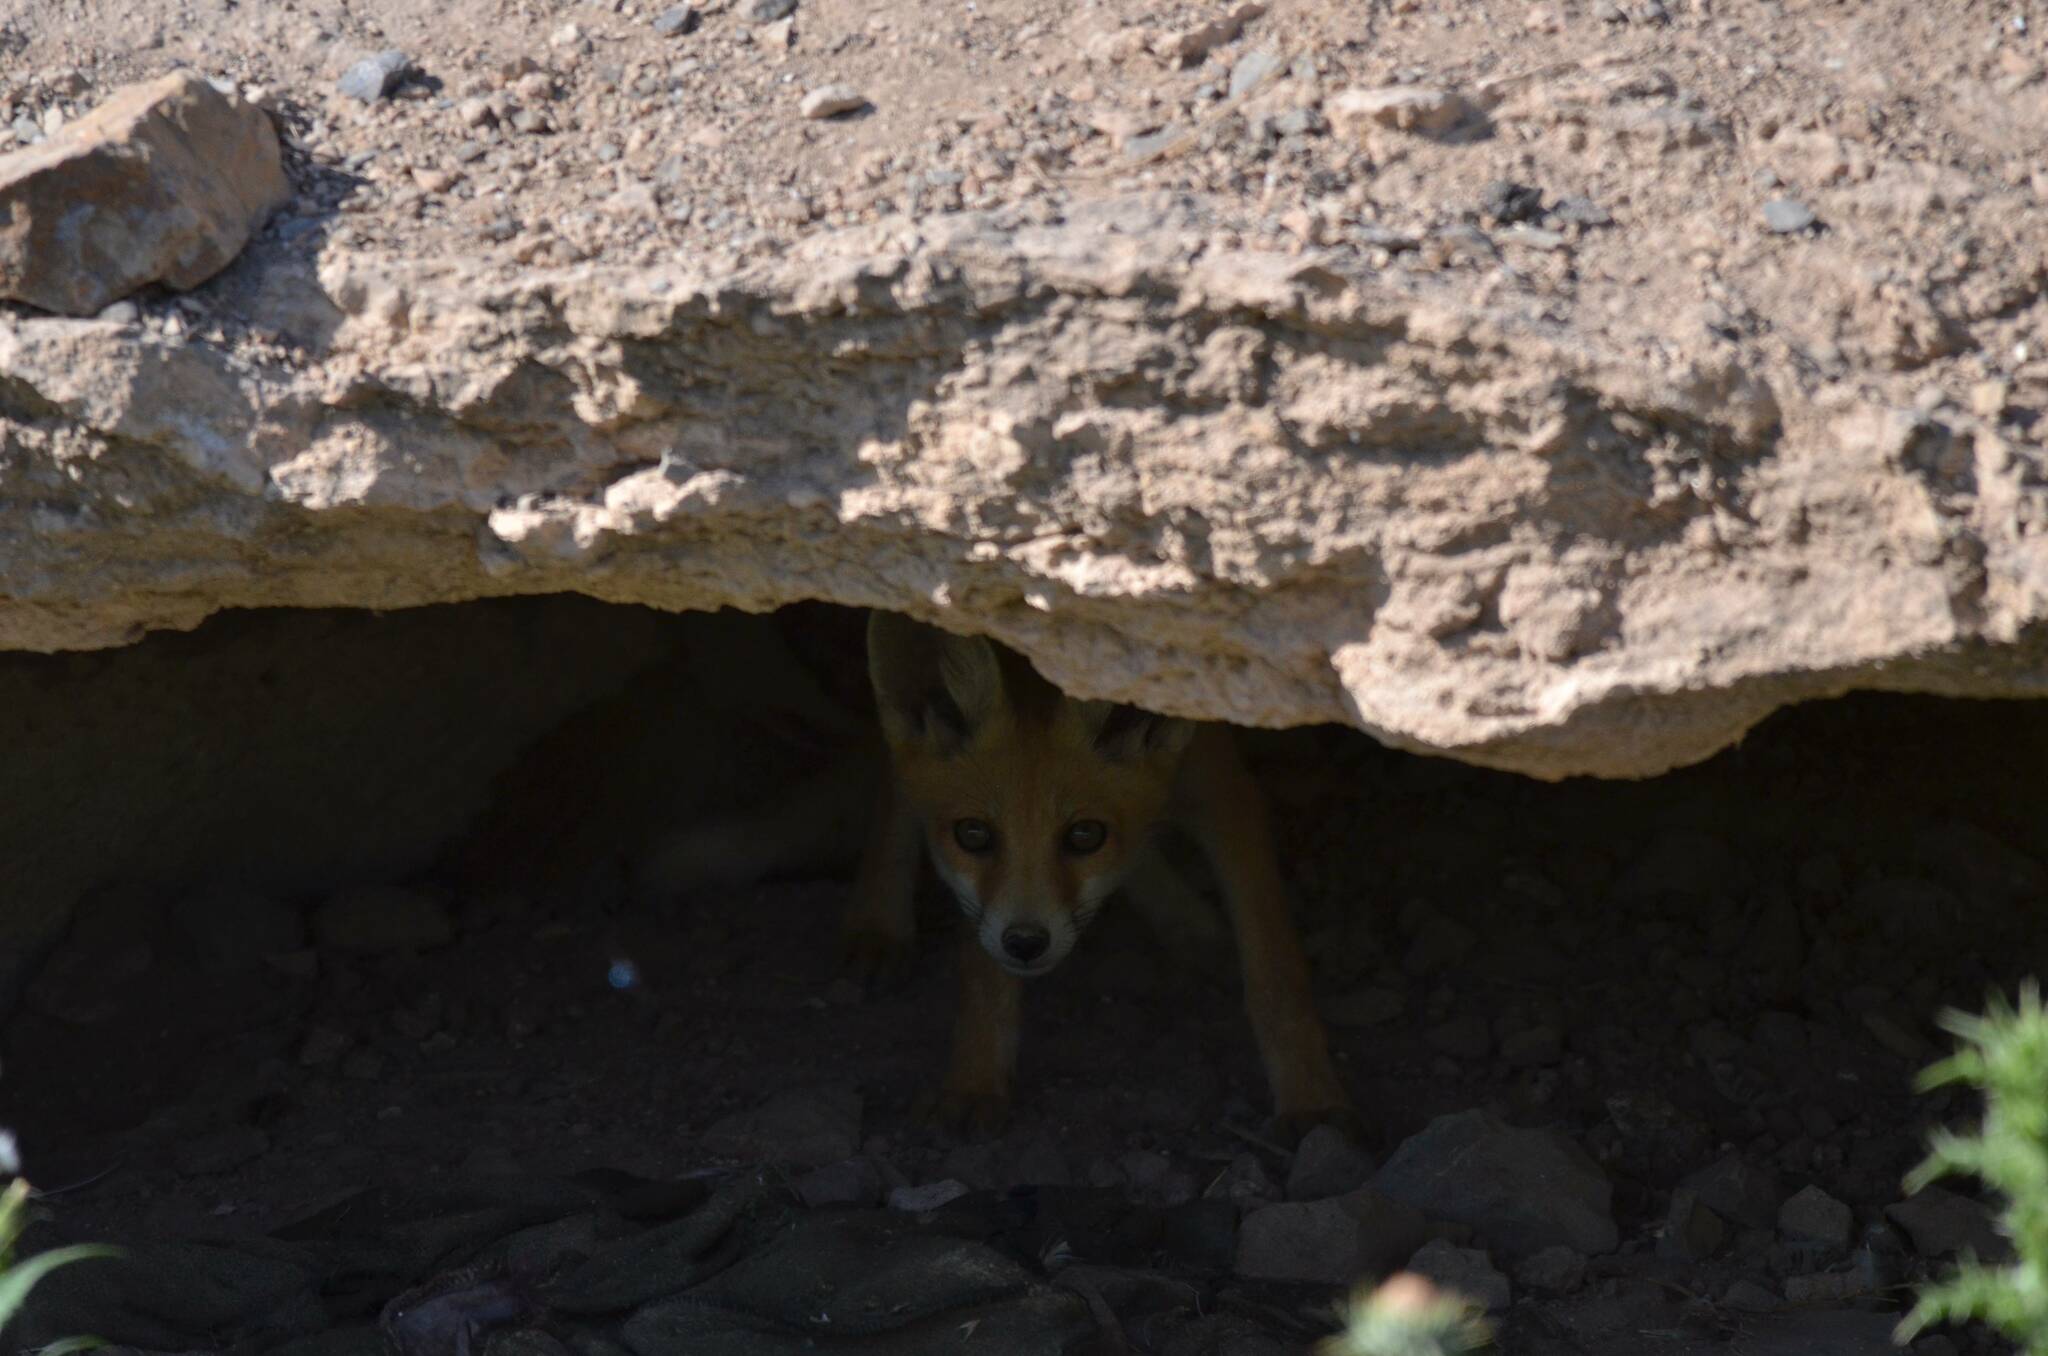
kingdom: Animalia
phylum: Chordata
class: Mammalia
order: Carnivora
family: Canidae
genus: Vulpes
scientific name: Vulpes vulpes
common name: Red fox
